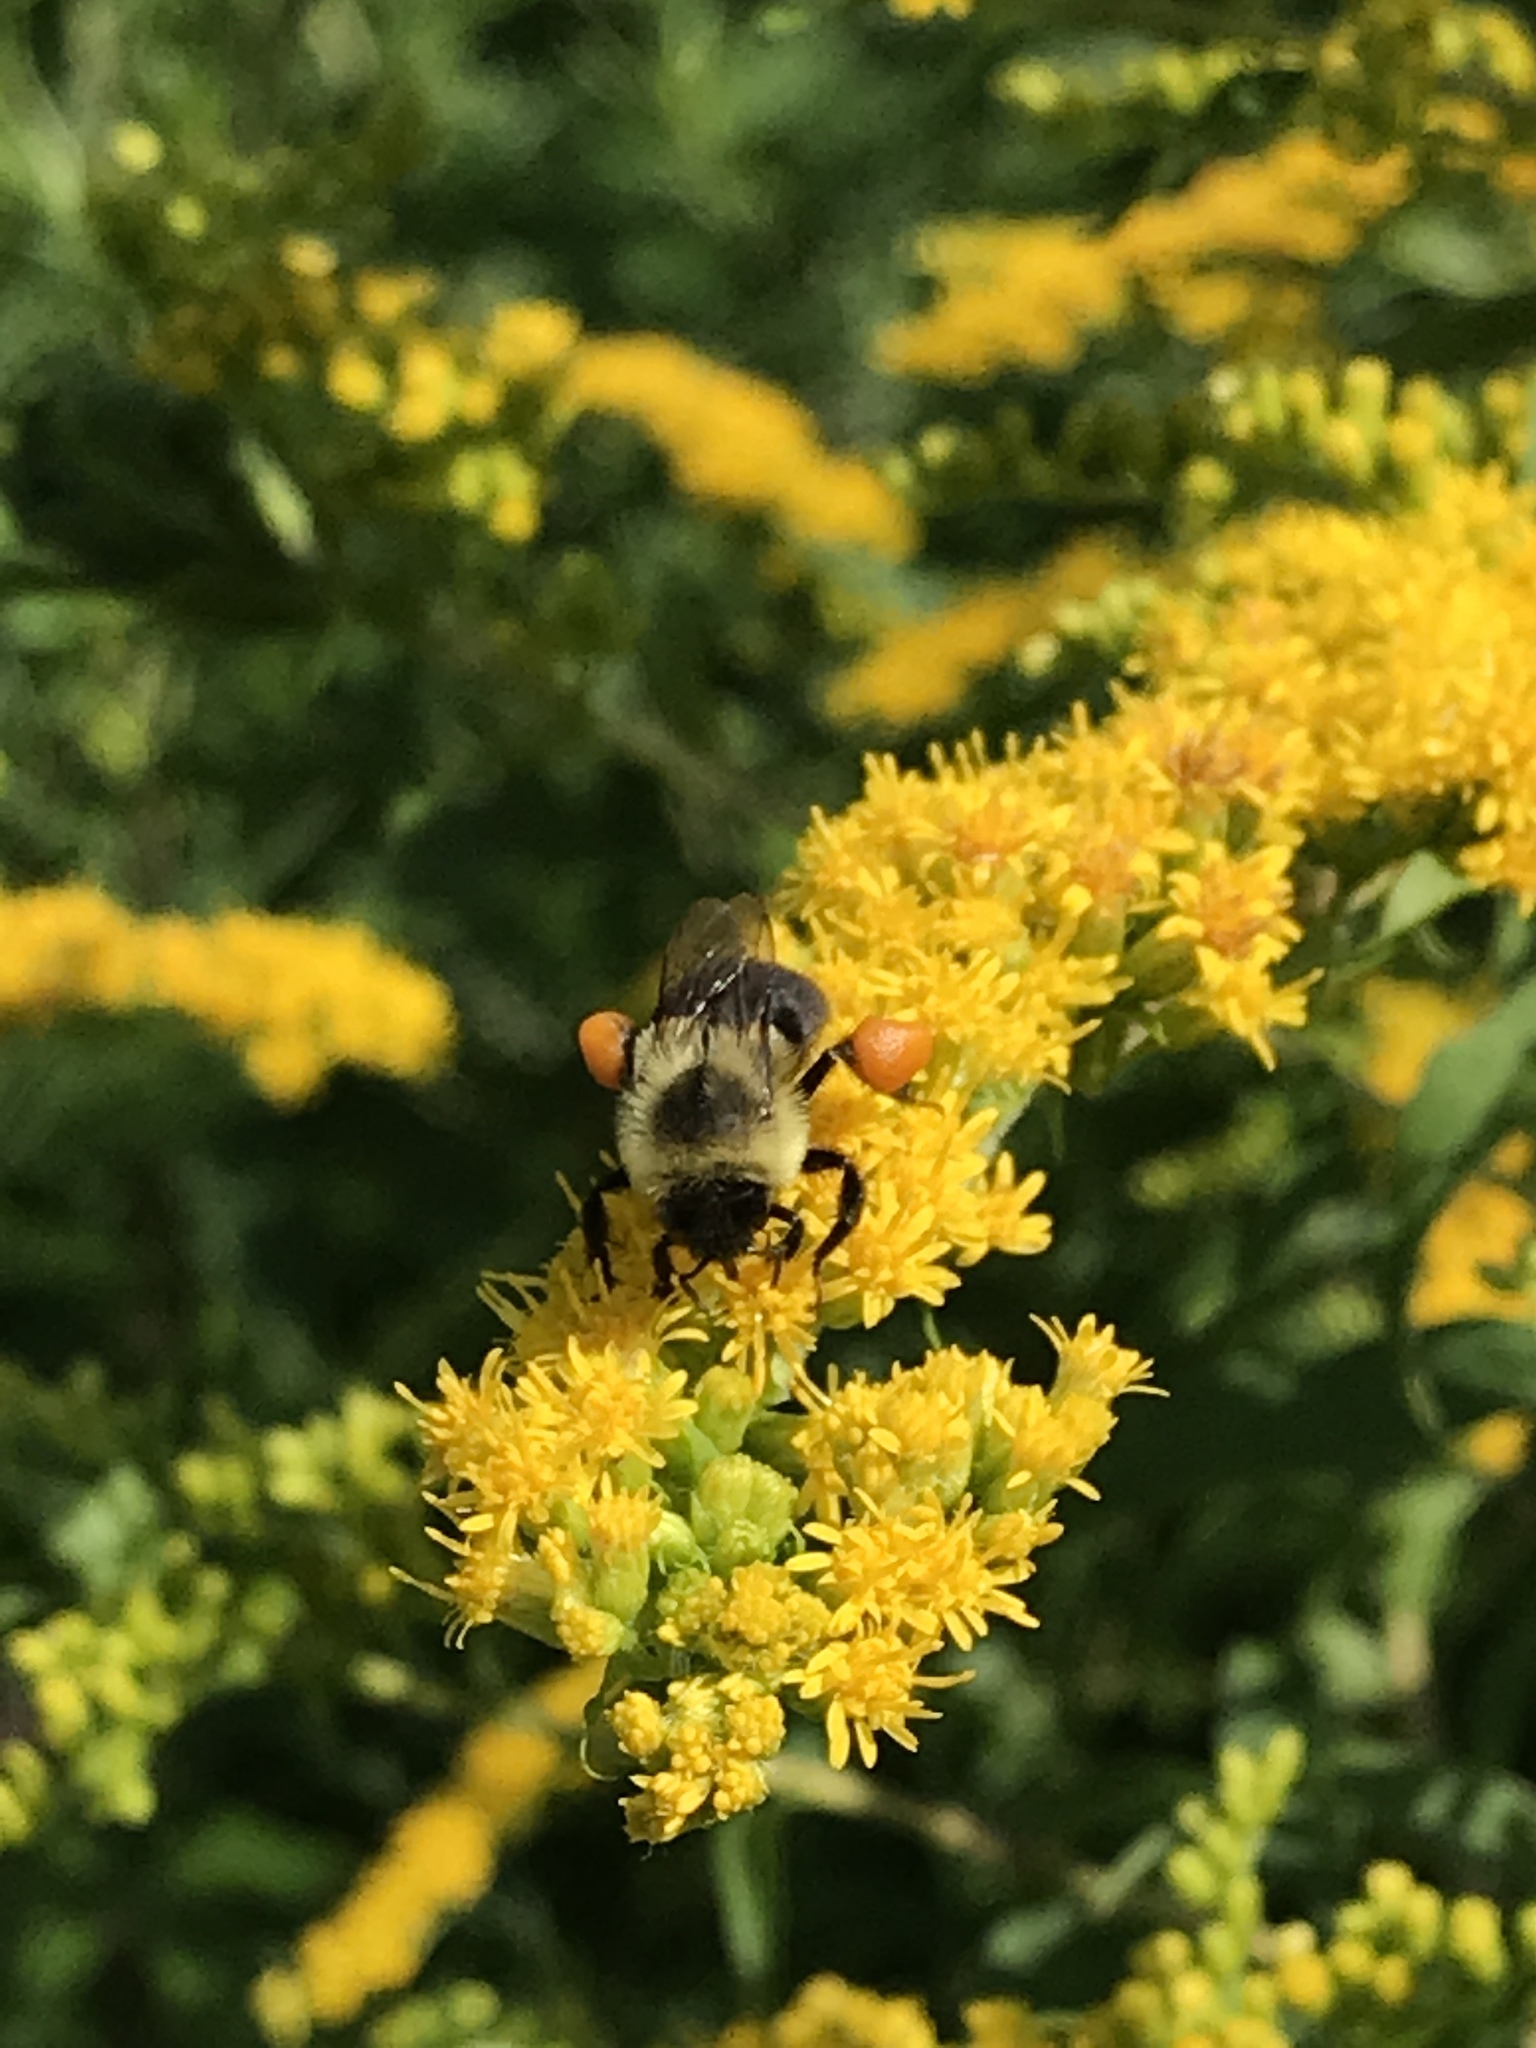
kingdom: Animalia
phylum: Arthropoda
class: Insecta
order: Hymenoptera
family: Apidae
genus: Bombus
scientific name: Bombus impatiens
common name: Common eastern bumble bee
